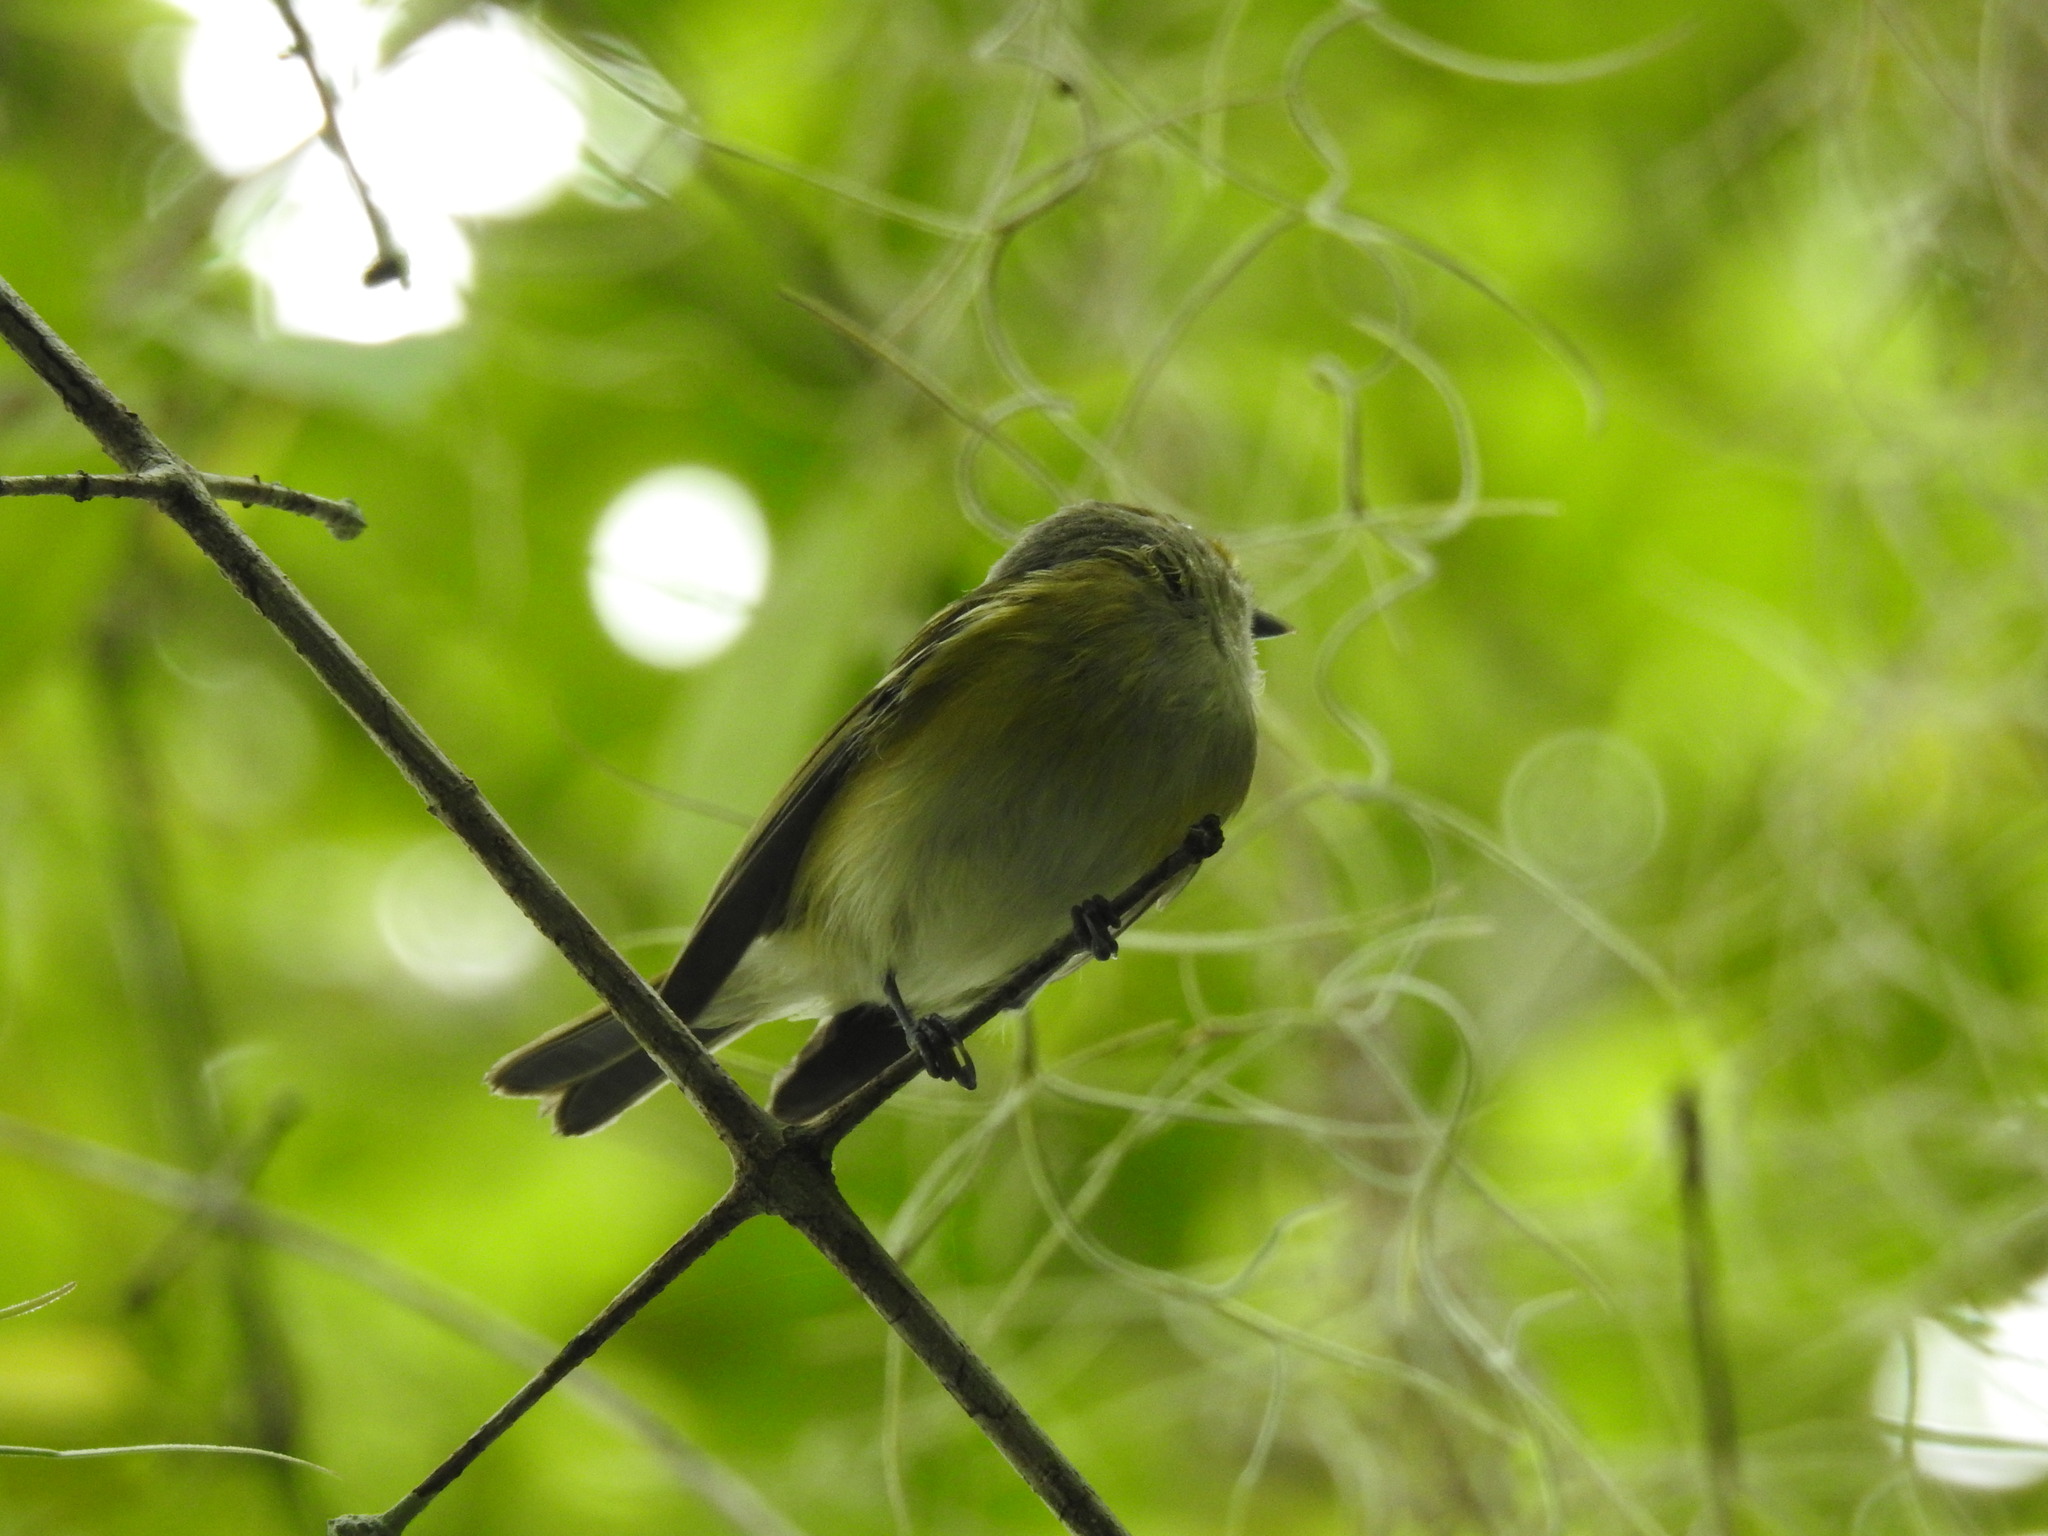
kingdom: Animalia
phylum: Chordata
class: Aves
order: Passeriformes
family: Vireonidae
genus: Vireo
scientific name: Vireo griseus
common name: White-eyed vireo
